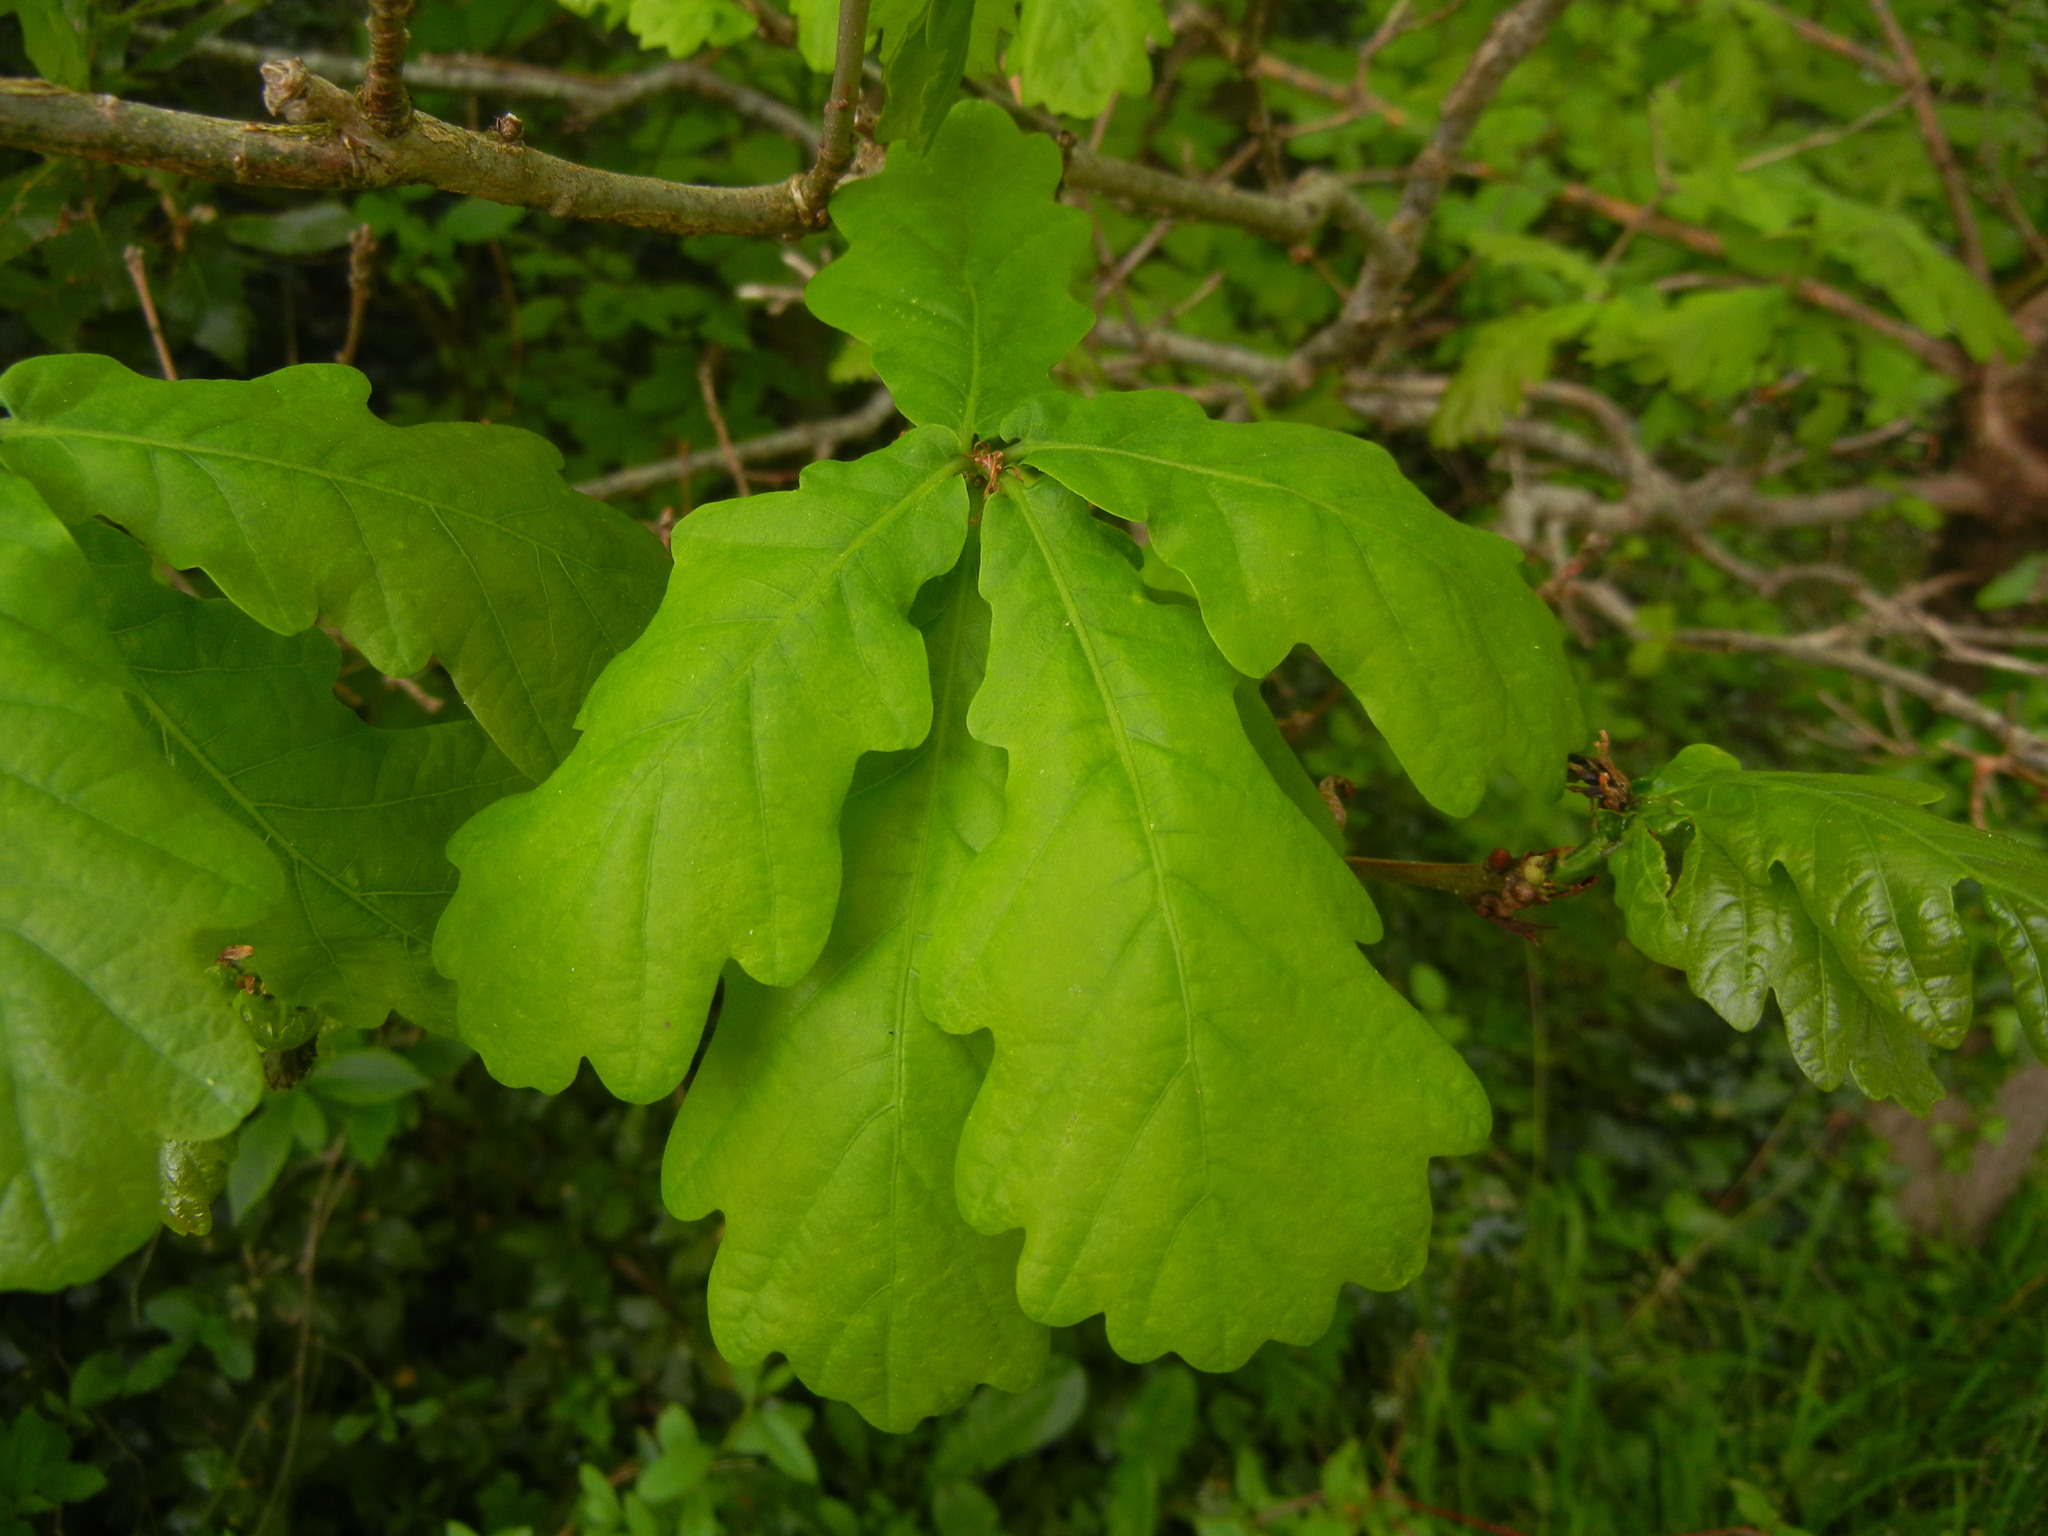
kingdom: Plantae
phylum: Tracheophyta
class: Magnoliopsida
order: Fagales
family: Fagaceae
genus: Quercus
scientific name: Quercus robur
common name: Pedunculate oak
